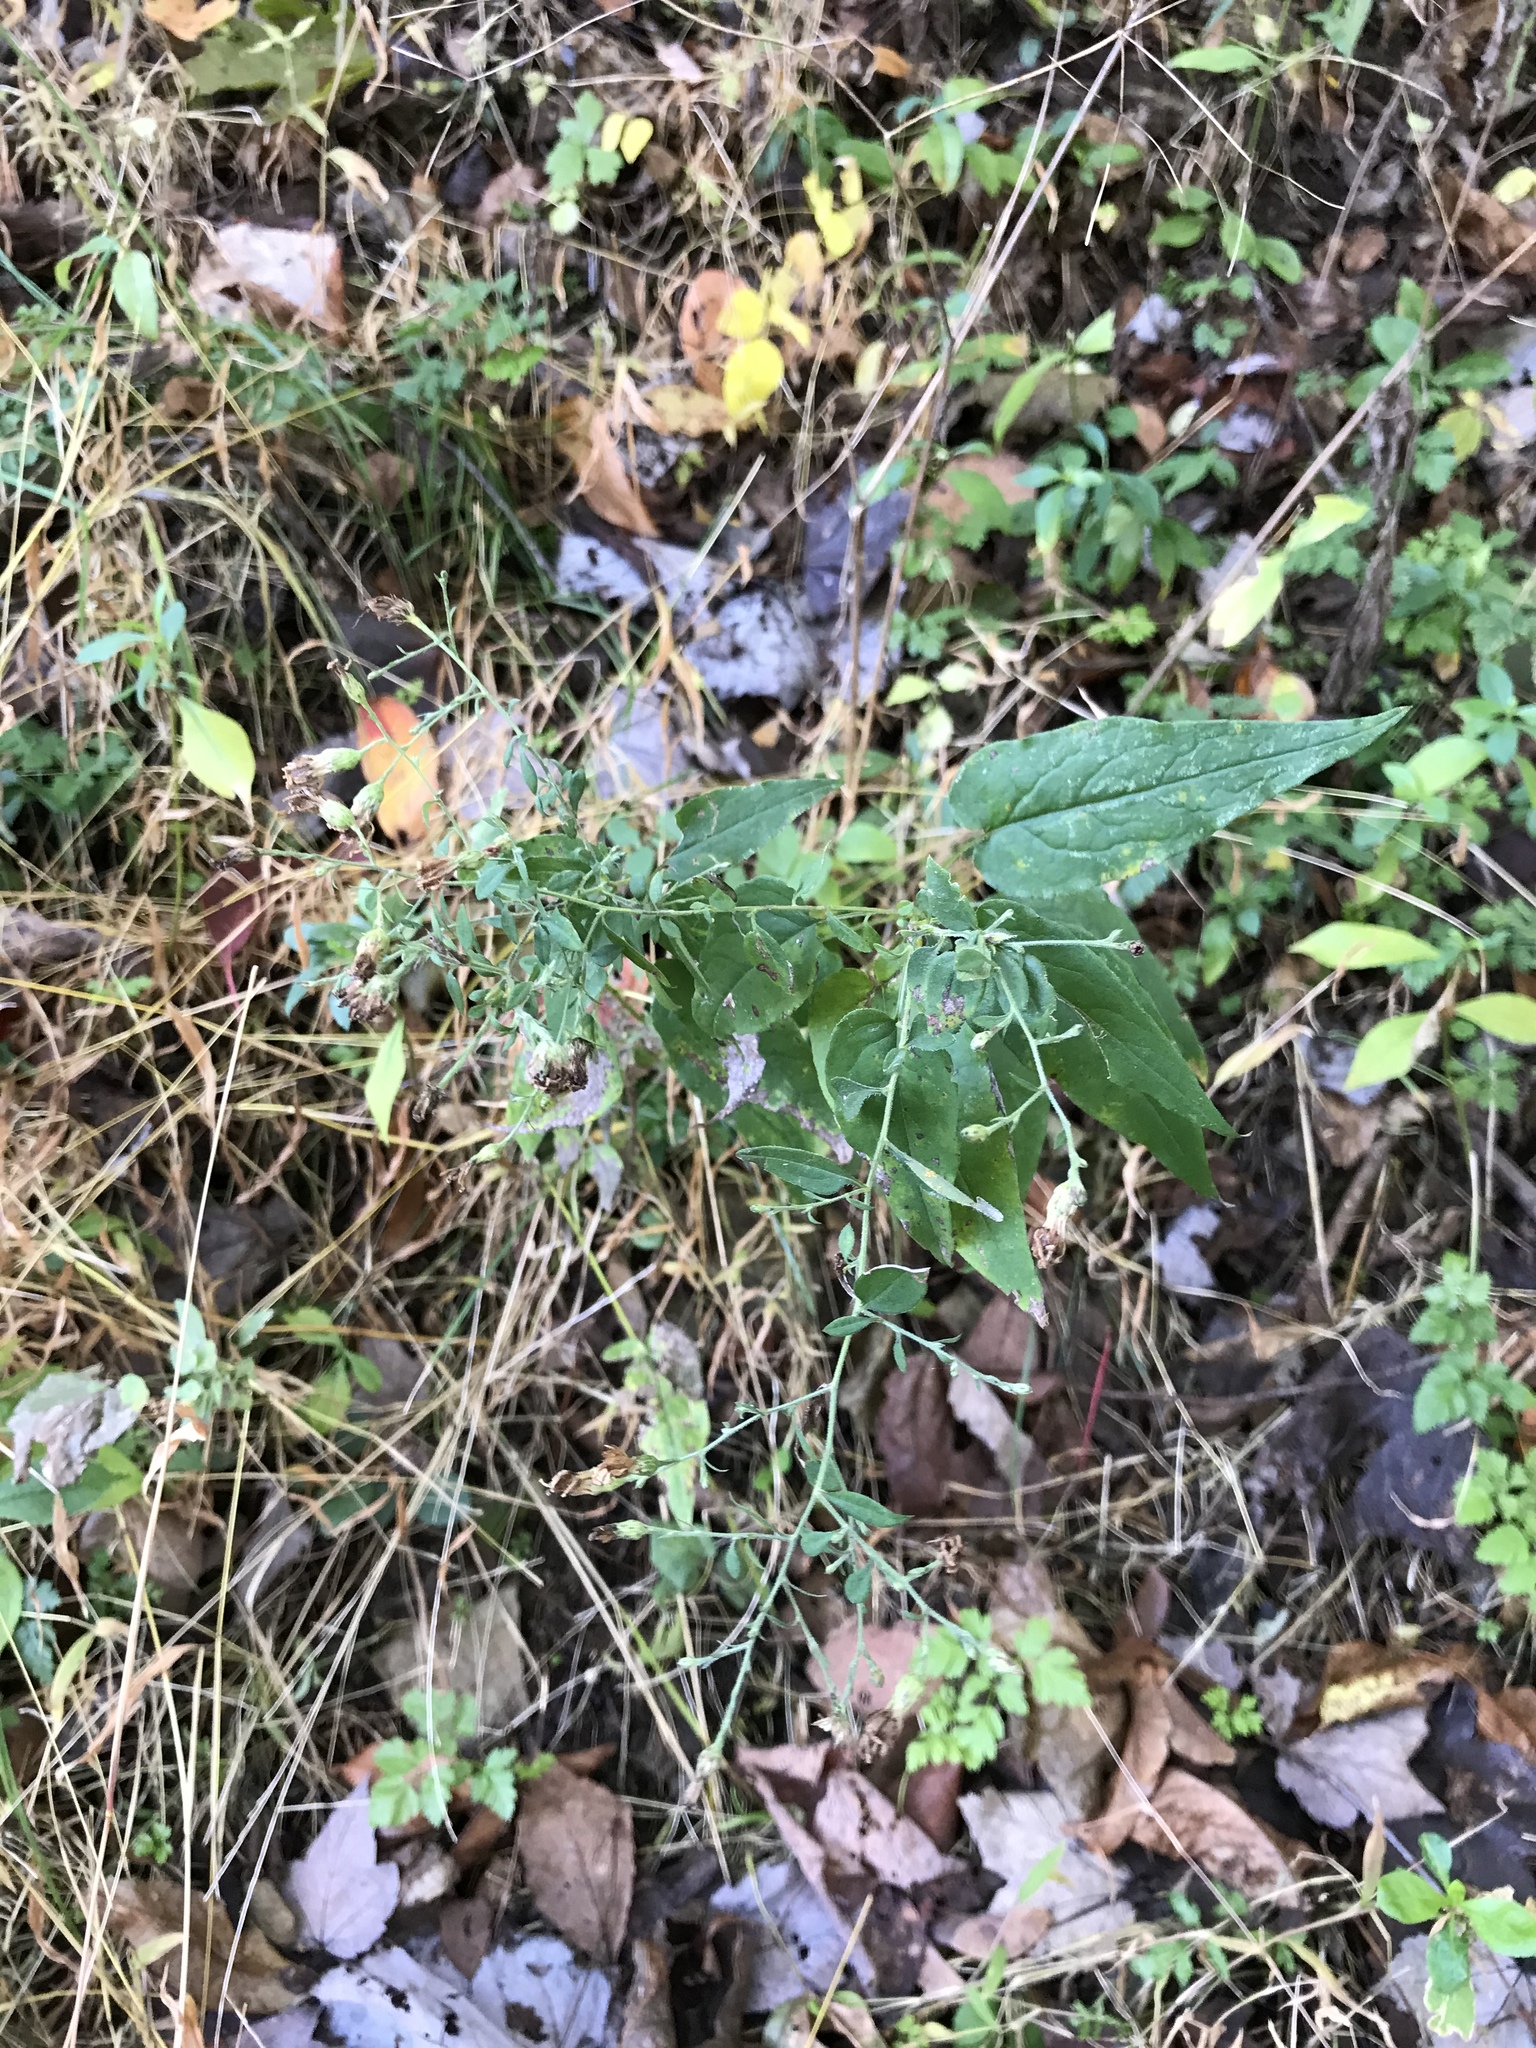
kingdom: Plantae
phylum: Tracheophyta
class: Magnoliopsida
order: Asterales
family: Asteraceae
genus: Symphyotrichum
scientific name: Symphyotrichum shortii
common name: Short's aster
